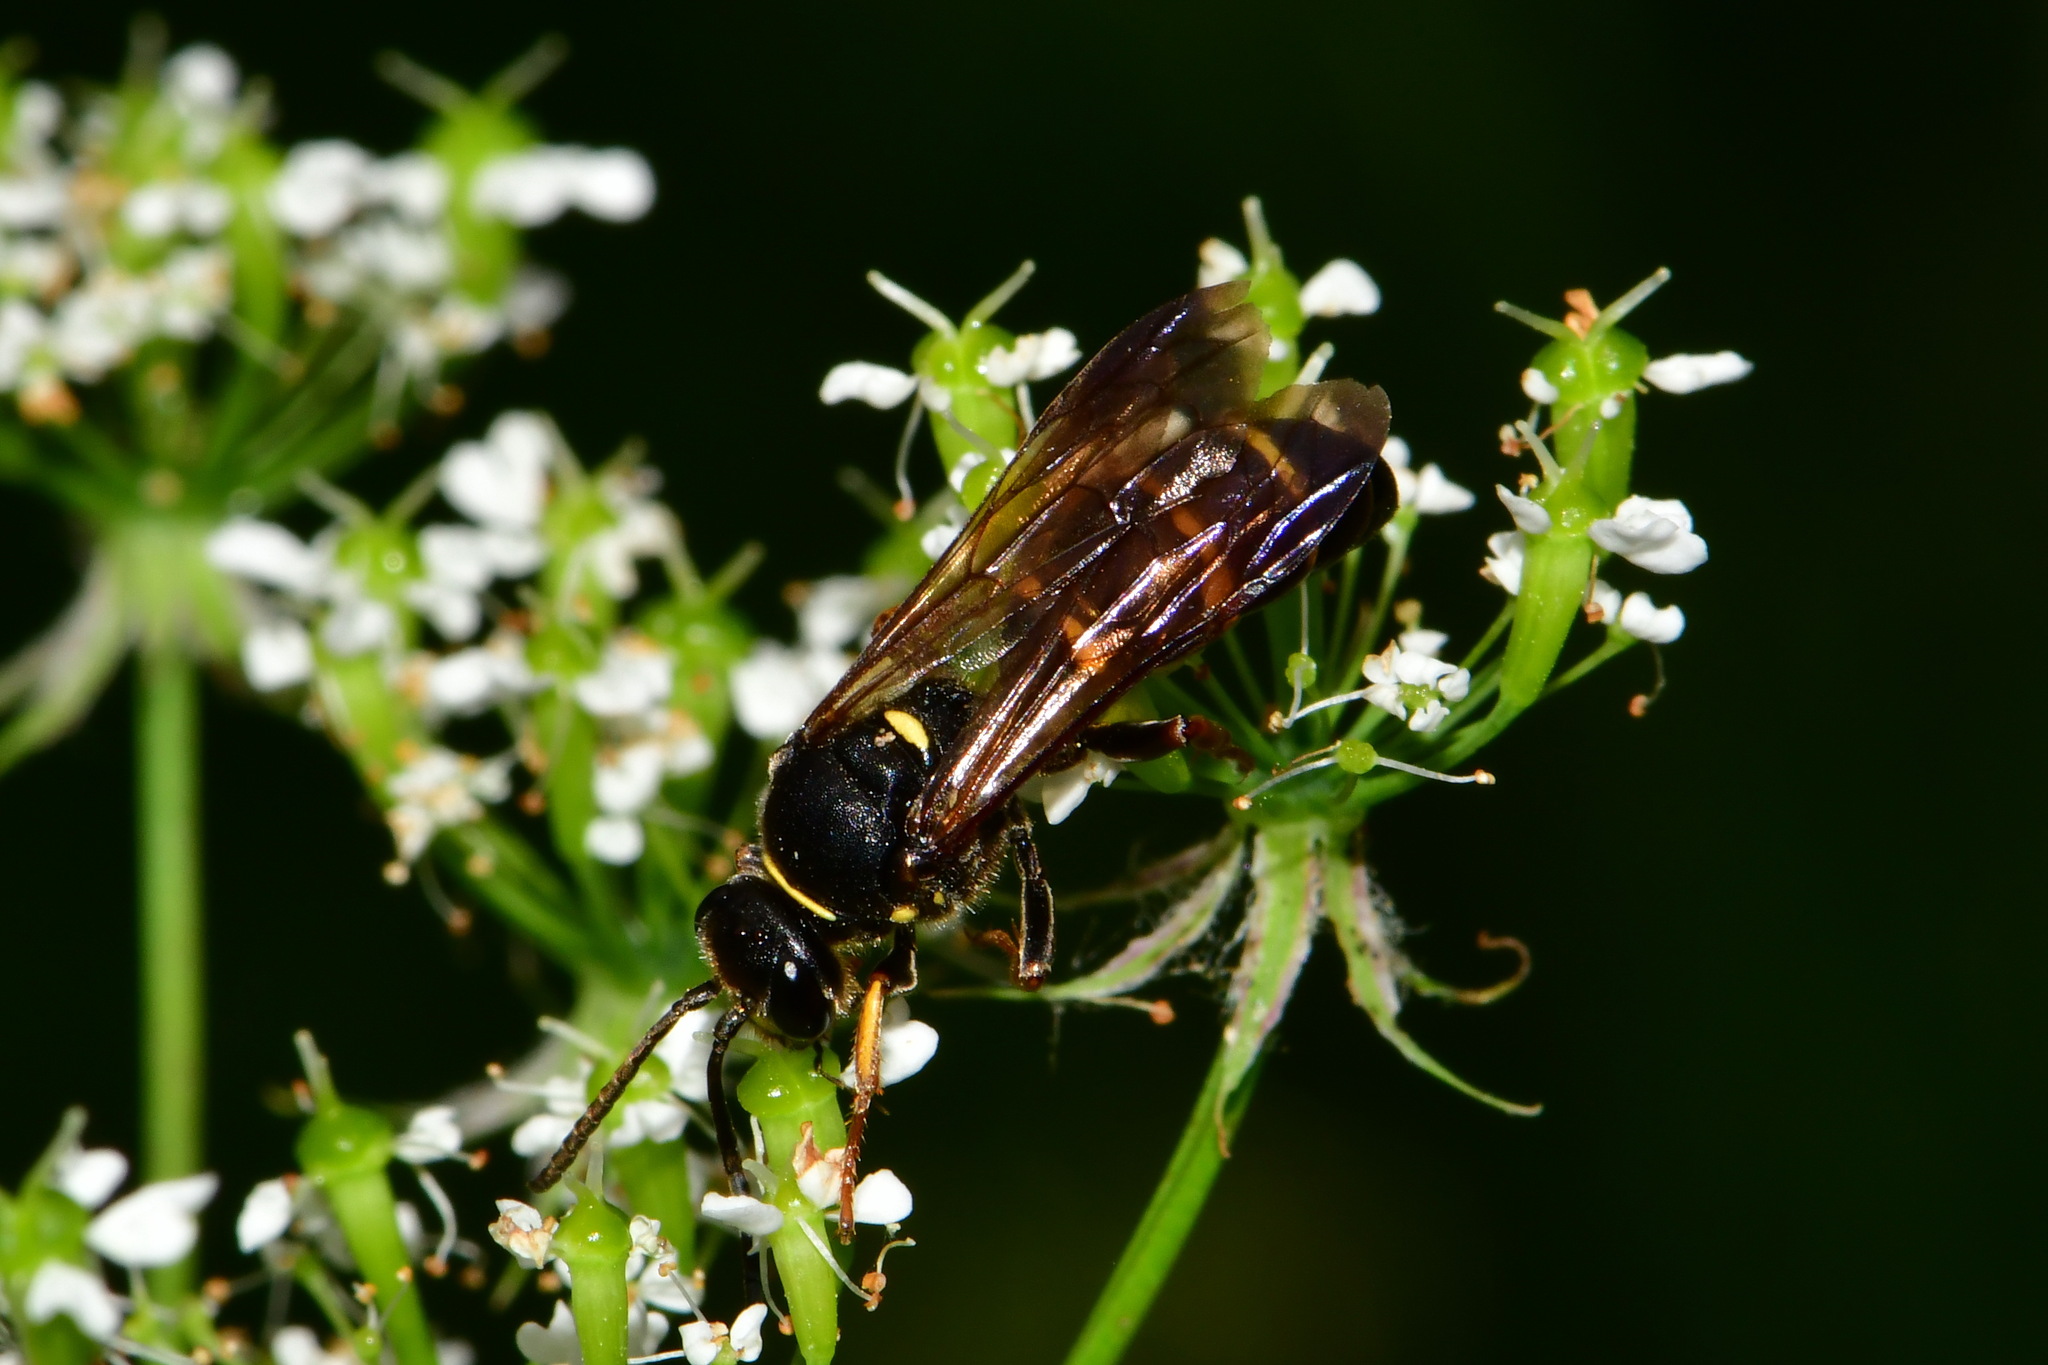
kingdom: Animalia
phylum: Arthropoda
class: Insecta
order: Hymenoptera
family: Crabronidae
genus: Argogorytes
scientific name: Argogorytes mystaceus
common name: Field digger wasp
